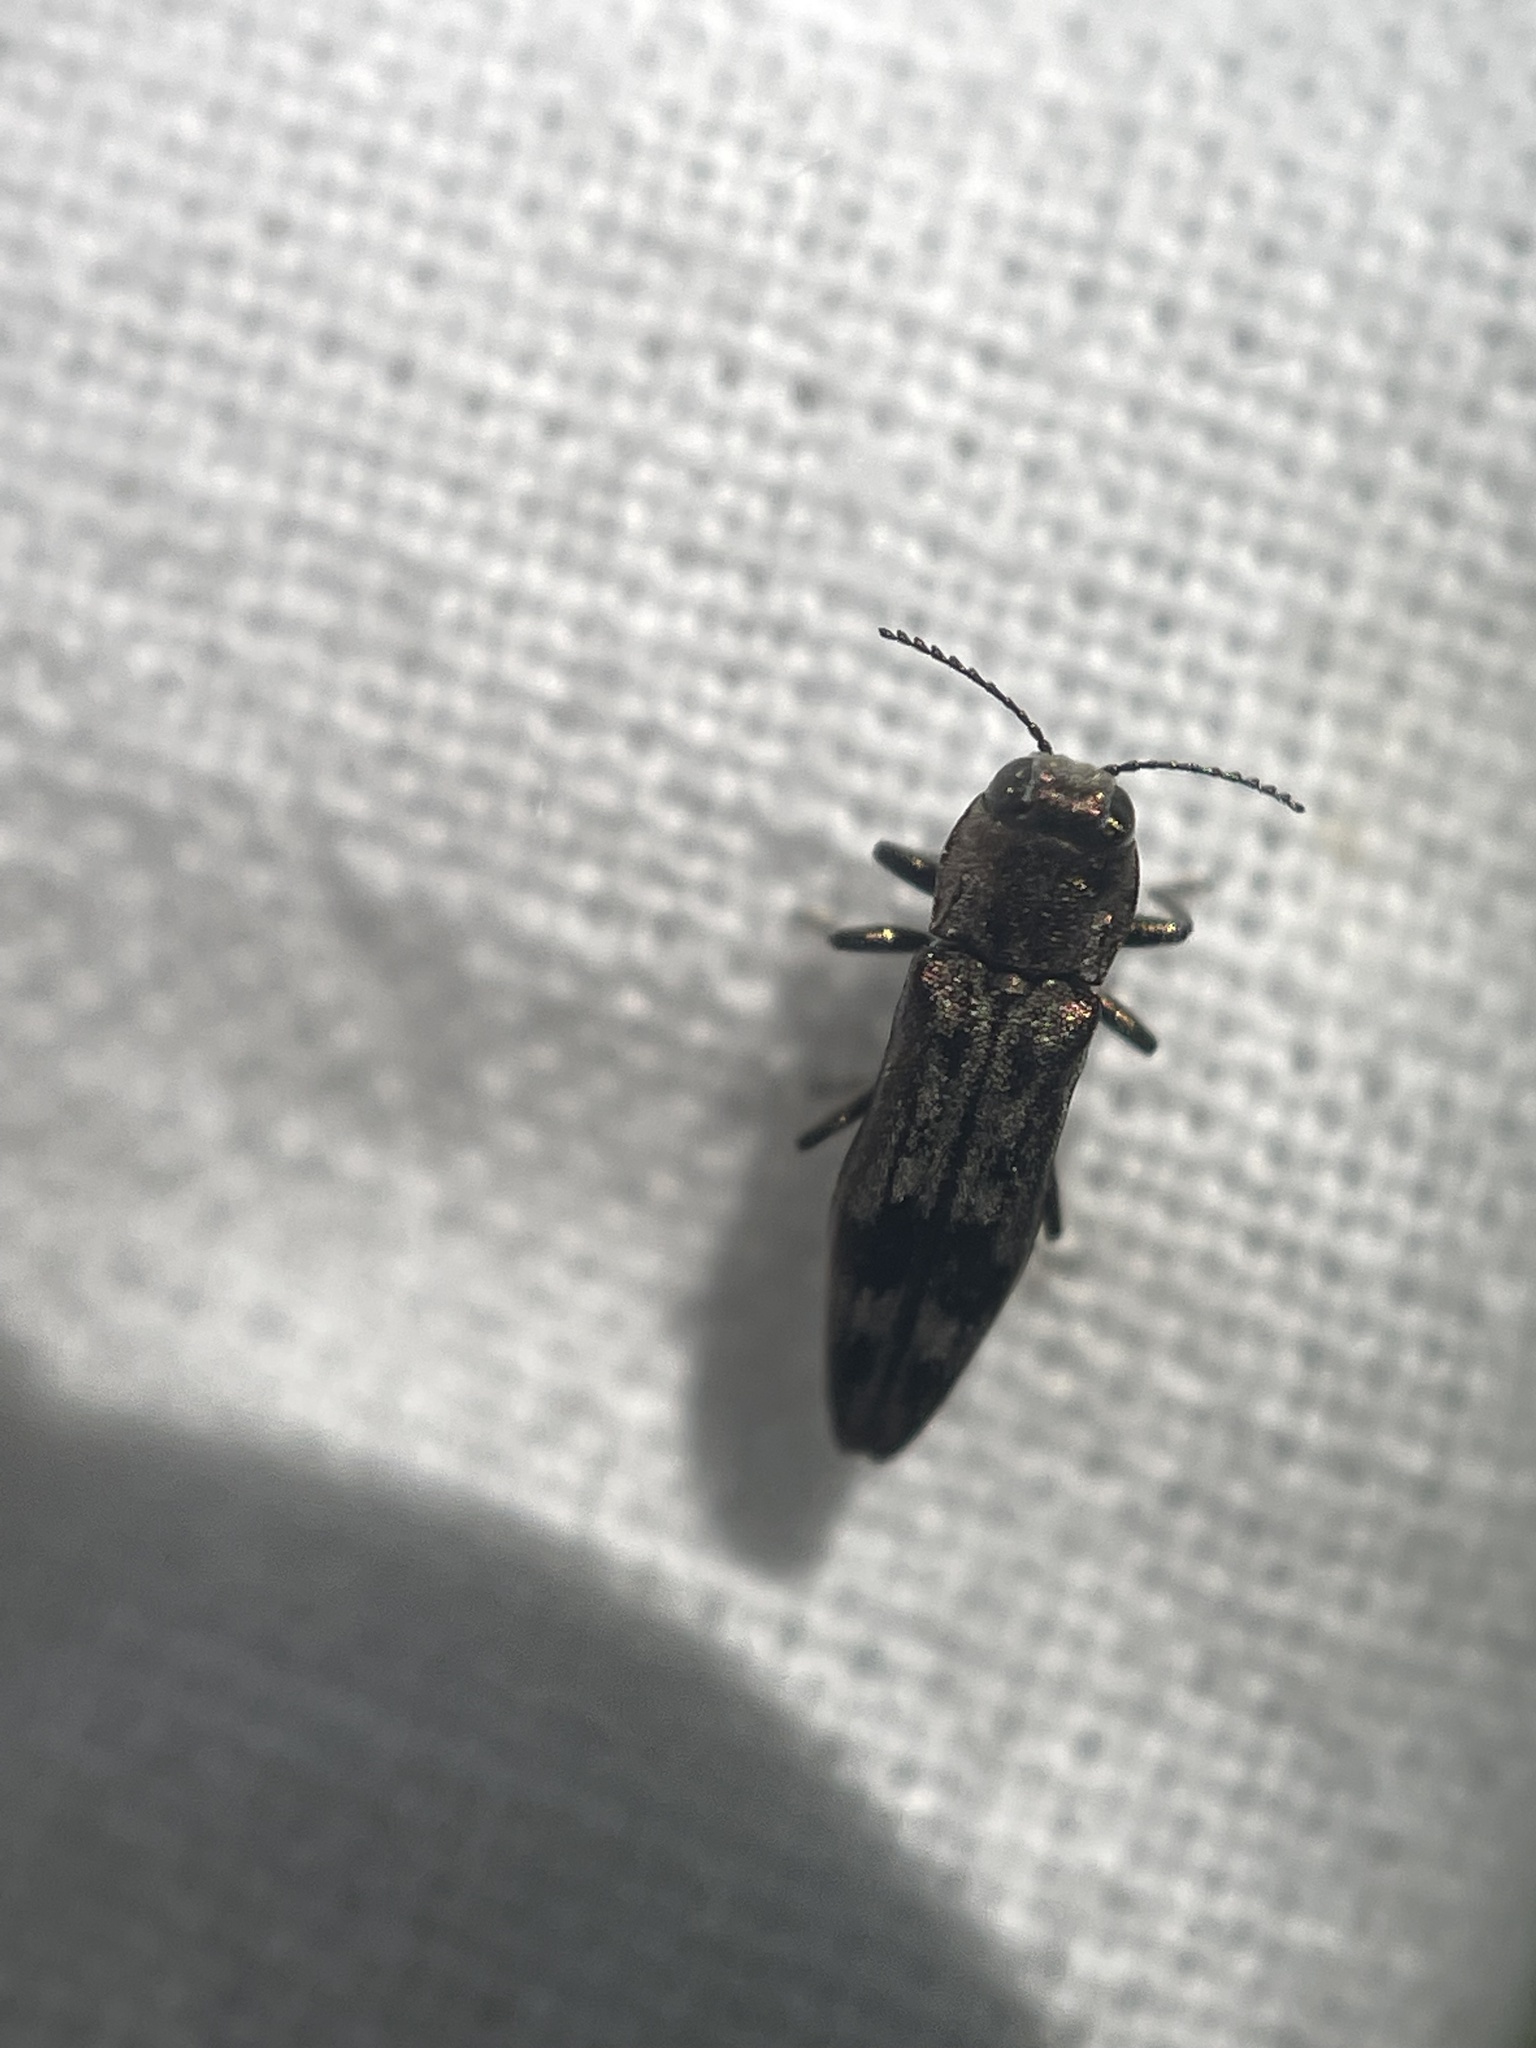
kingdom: Animalia
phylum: Arthropoda
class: Insecta
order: Coleoptera
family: Buprestidae
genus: Agrilus
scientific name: Agrilus lecontei
